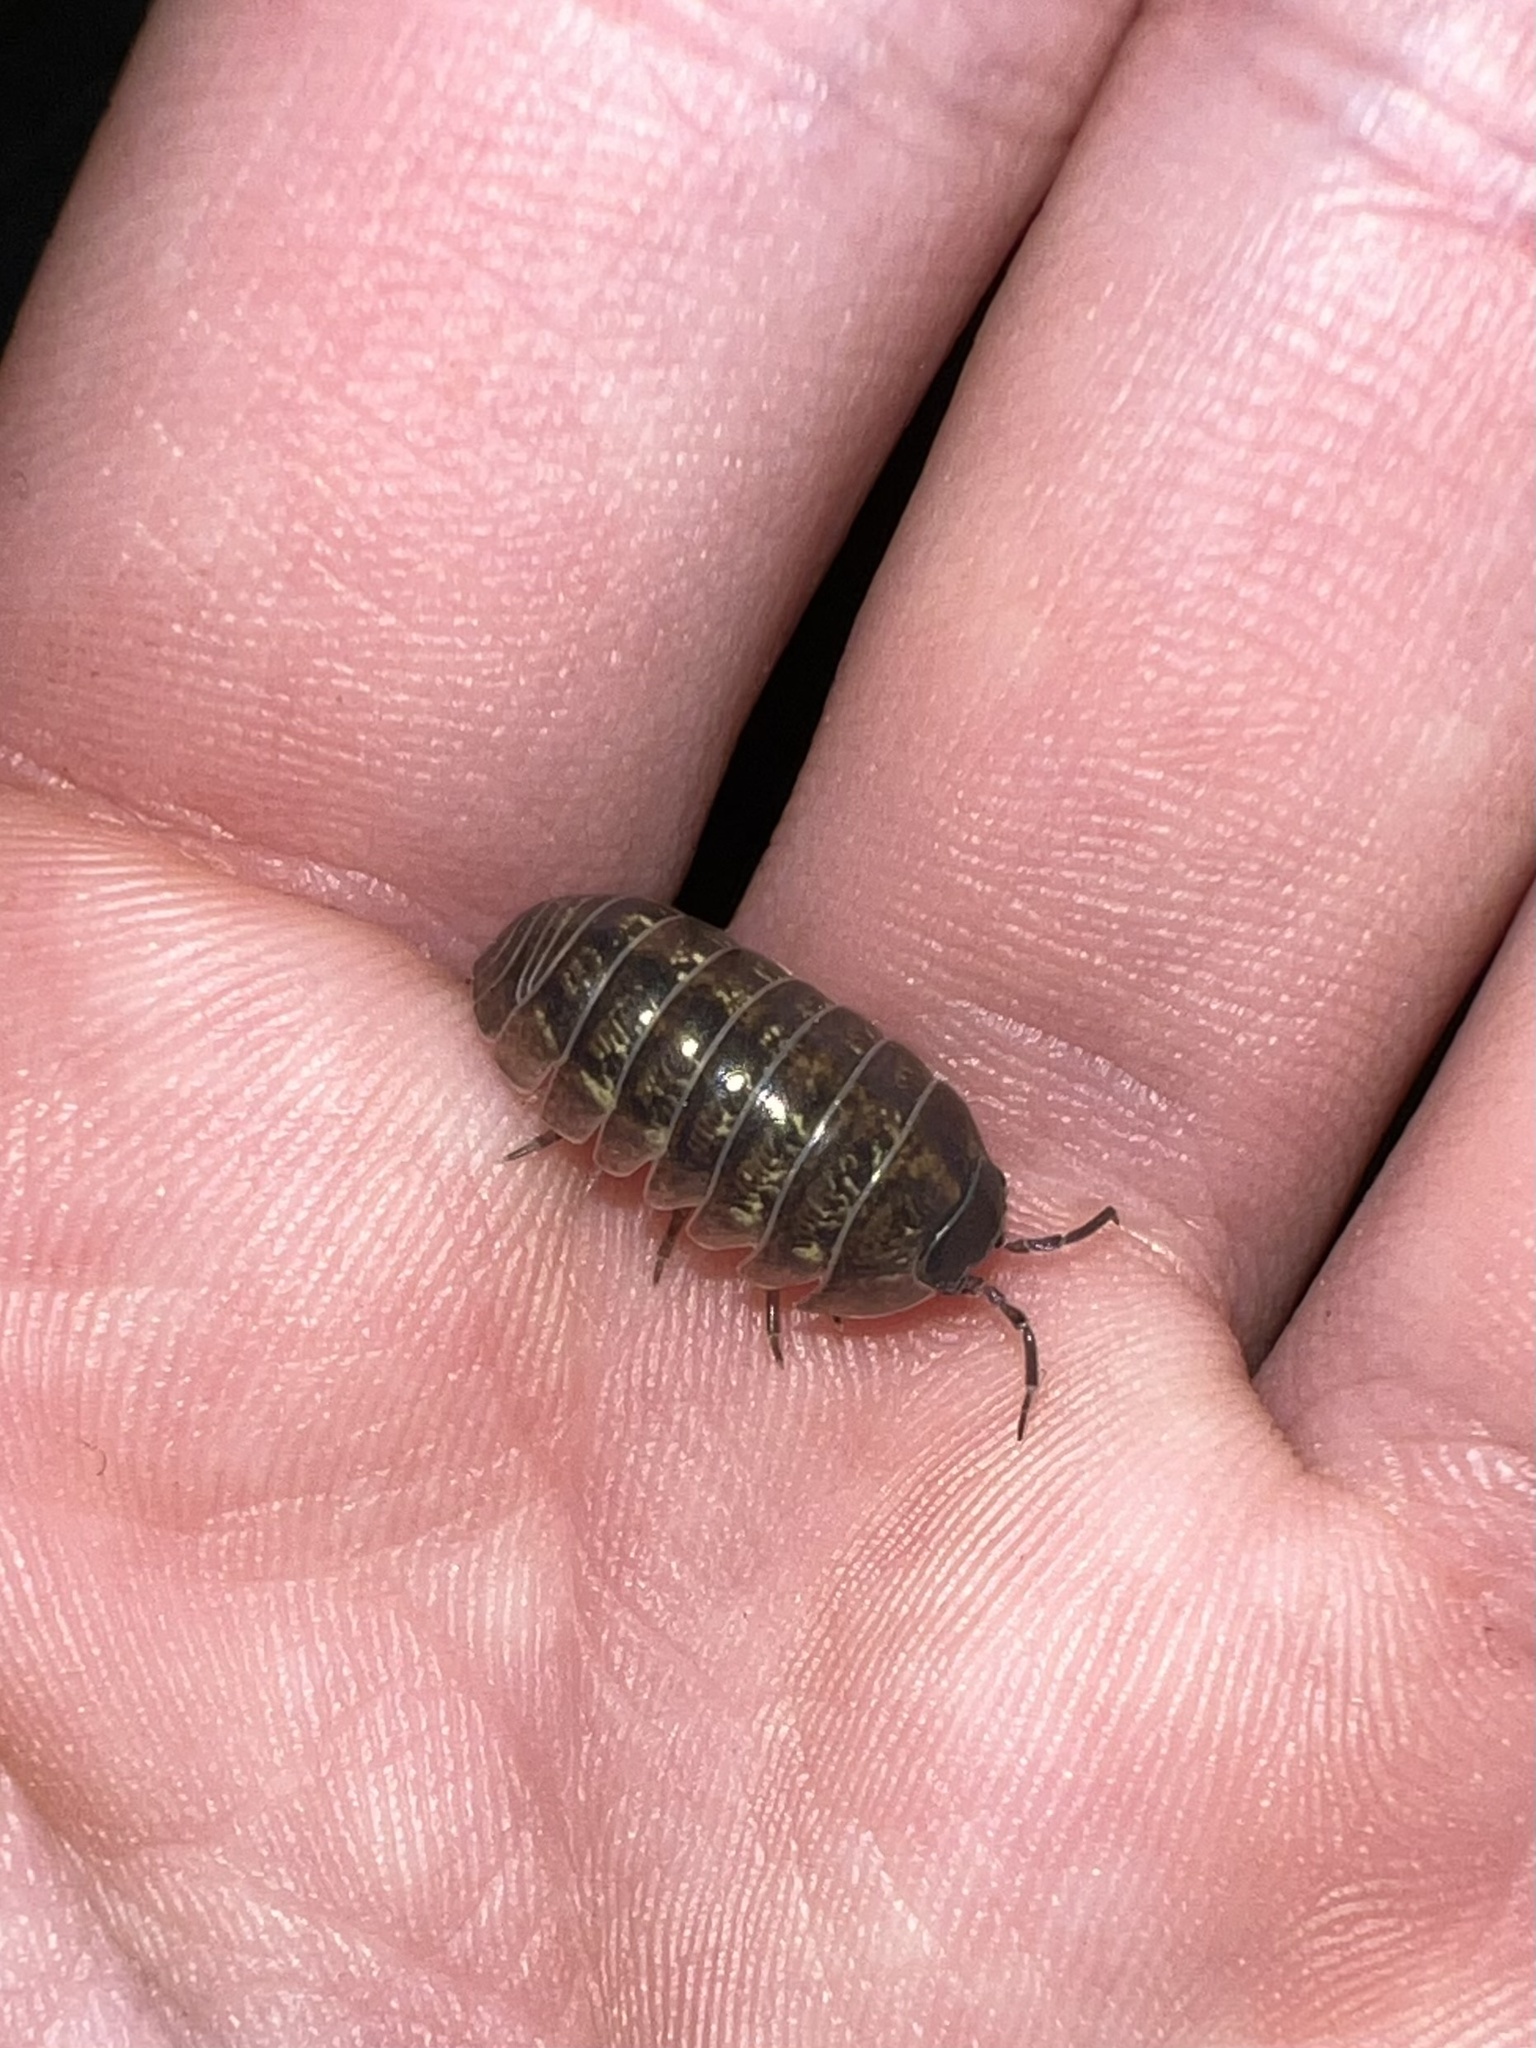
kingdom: Animalia
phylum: Arthropoda
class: Malacostraca
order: Isopoda
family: Armadillidiidae
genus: Armadillidium
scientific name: Armadillidium vulgare
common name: Common pill woodlouse
